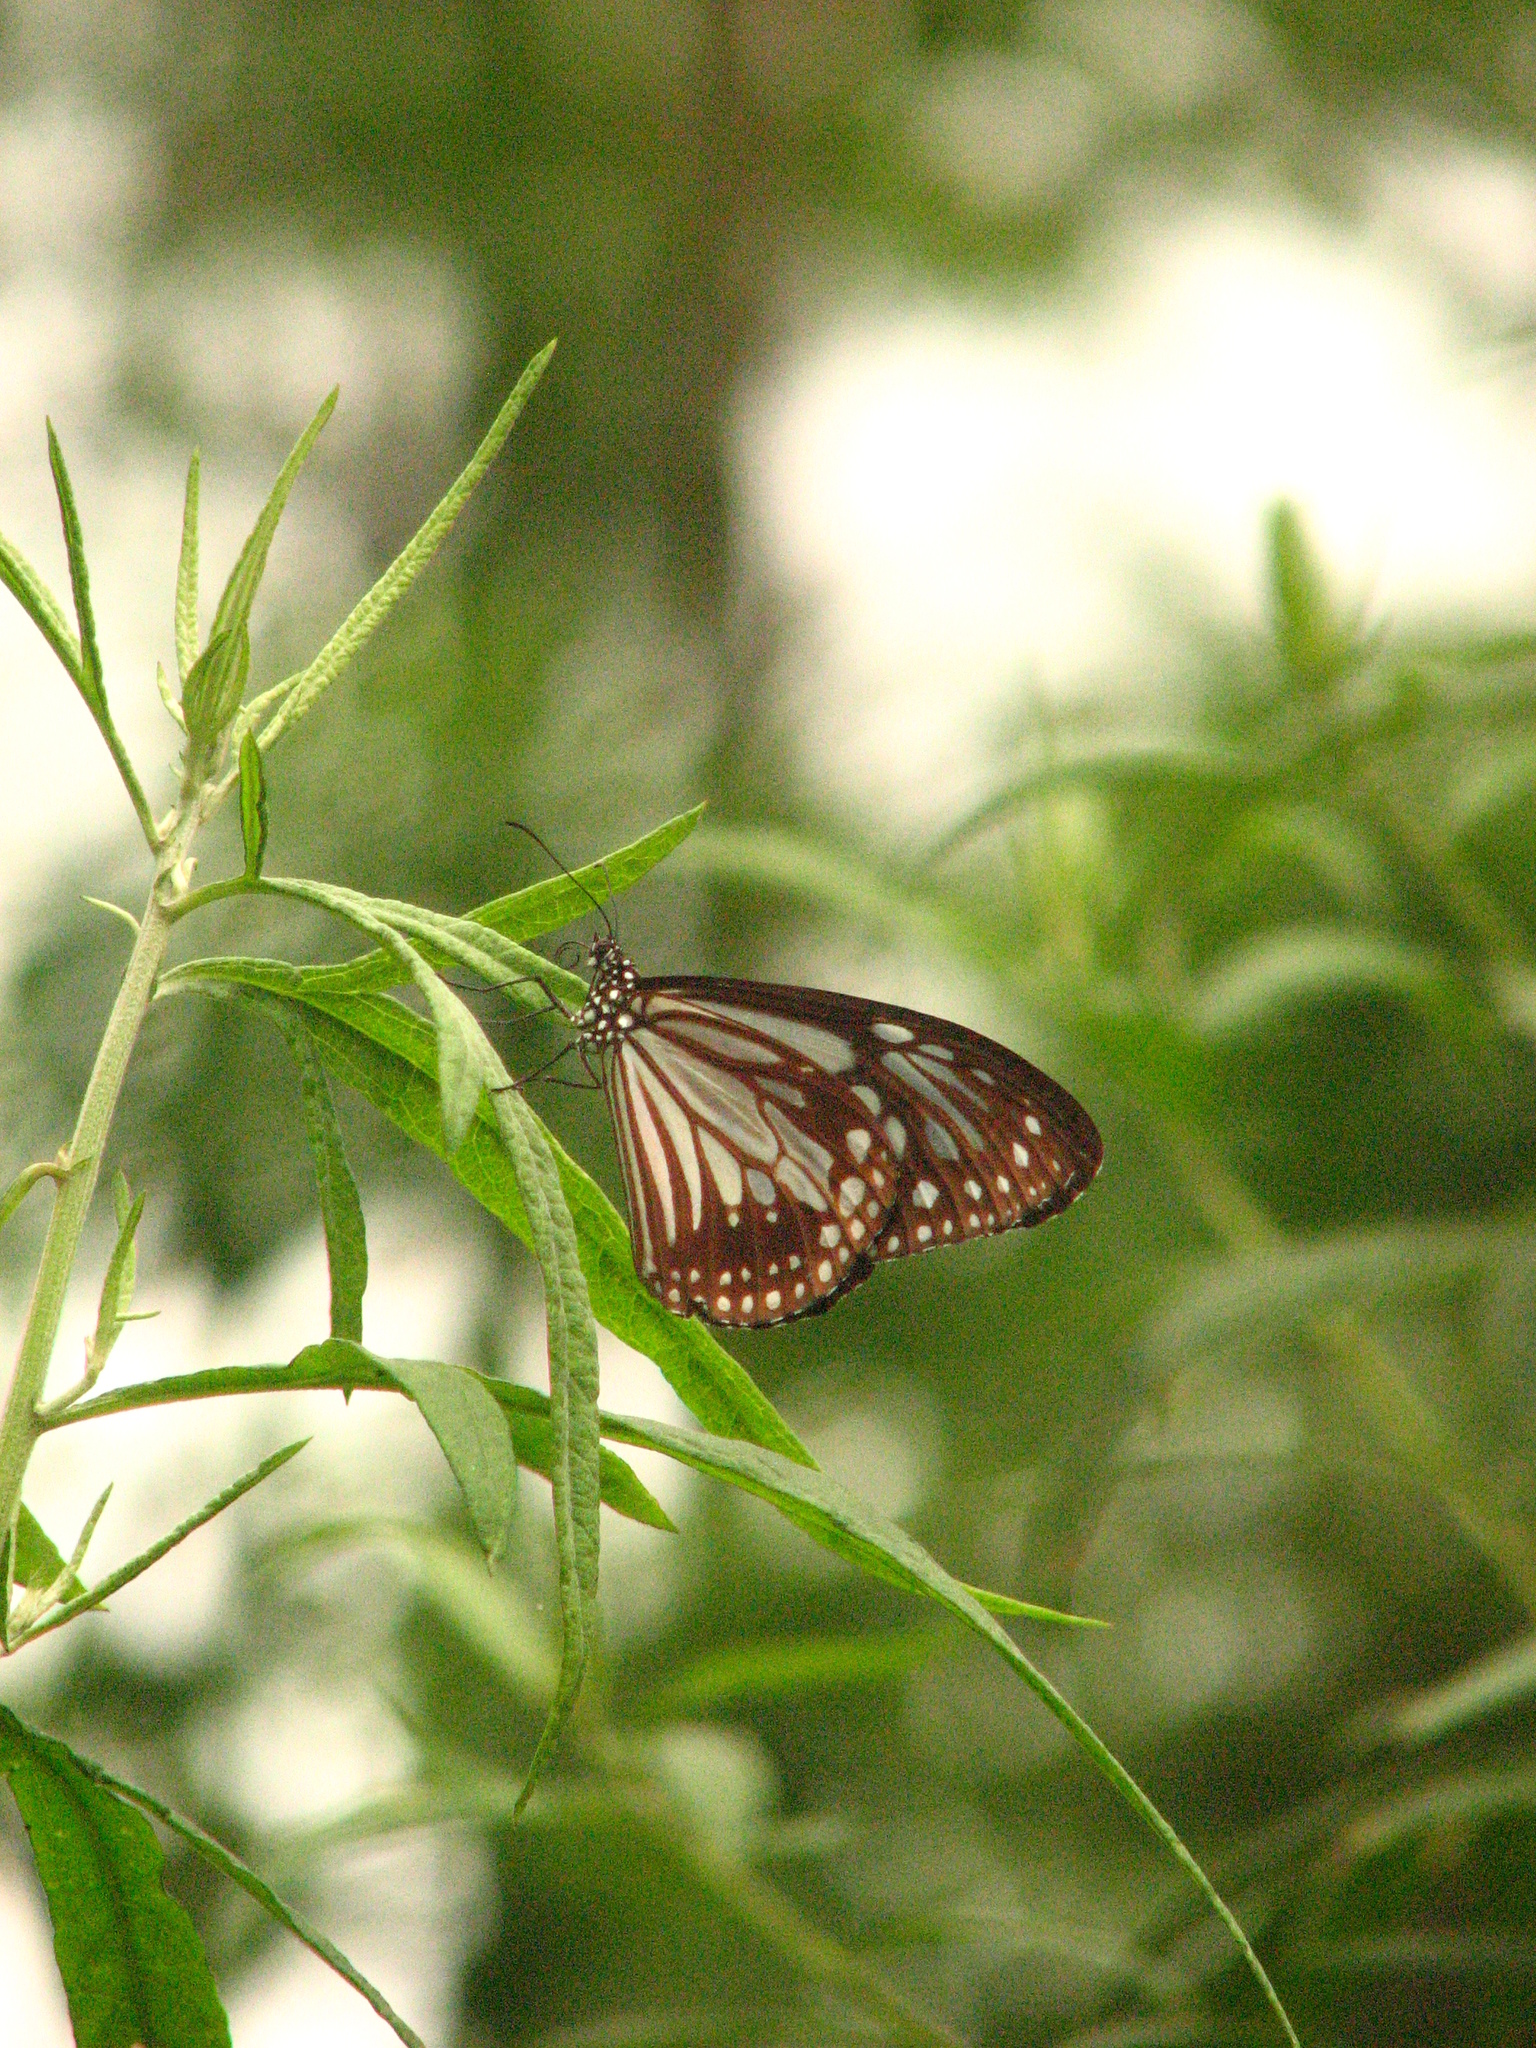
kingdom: Animalia
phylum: Arthropoda
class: Insecta
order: Lepidoptera
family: Nymphalidae
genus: Parantica
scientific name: Parantica melaneus
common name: Chocolate tiger
